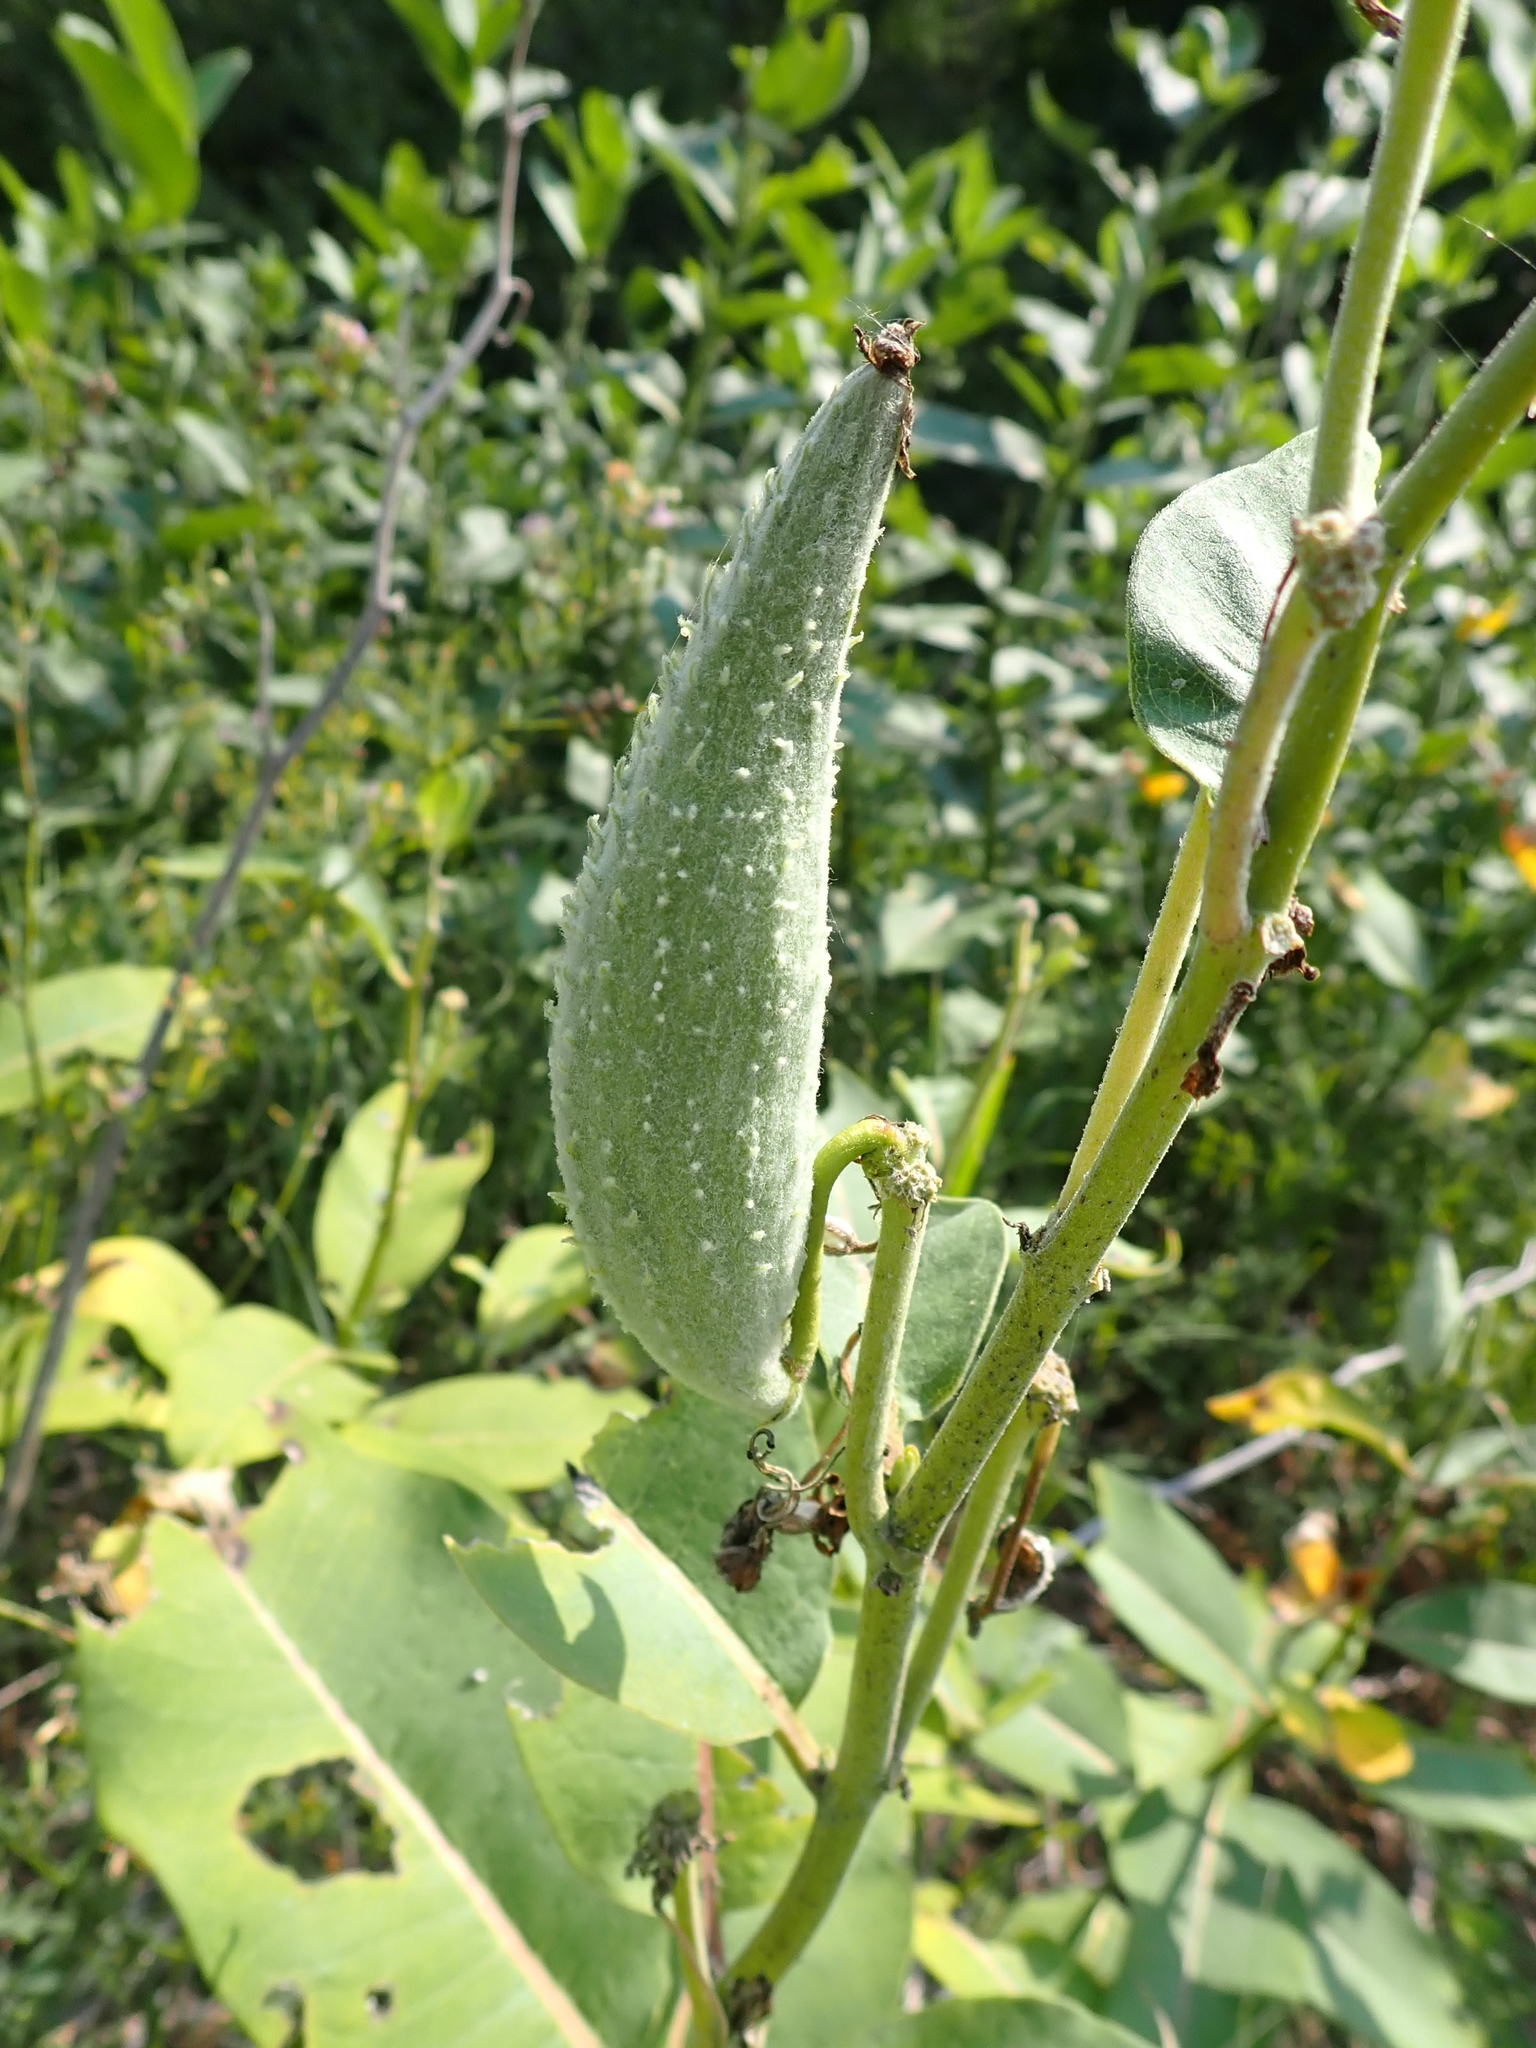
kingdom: Plantae
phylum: Tracheophyta
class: Magnoliopsida
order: Gentianales
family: Apocynaceae
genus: Asclepias
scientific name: Asclepias syriaca
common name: Common milkweed
